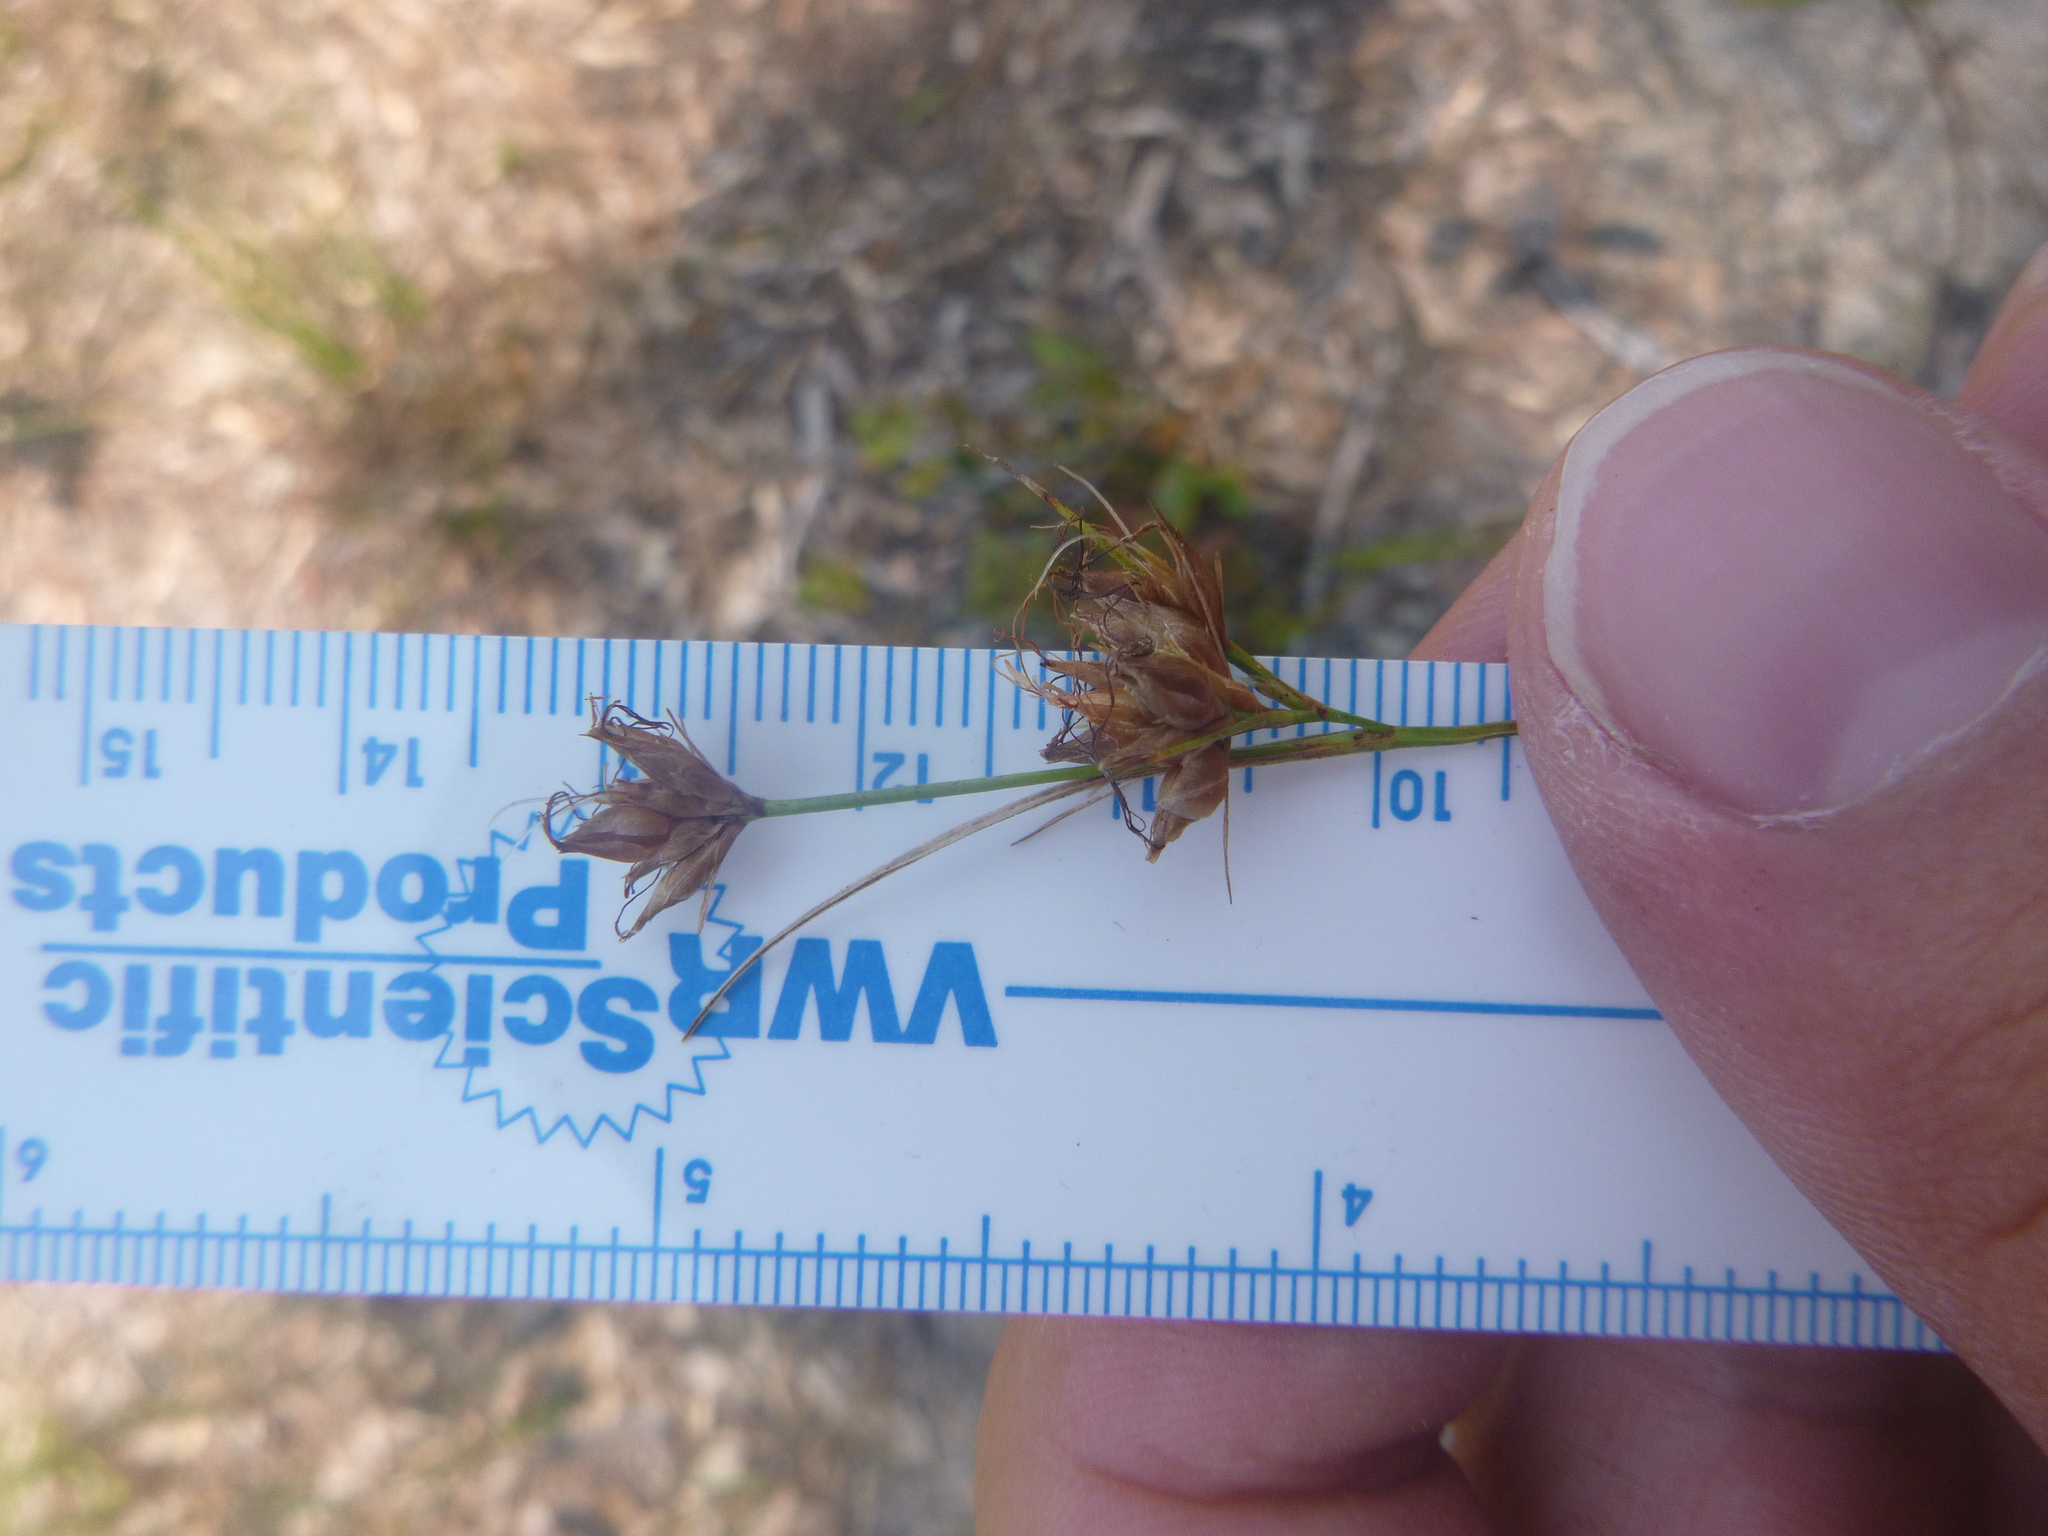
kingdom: Plantae
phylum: Tracheophyta
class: Liliopsida
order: Poales
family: Cyperaceae
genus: Rhynchospora
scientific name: Rhynchospora grayi
